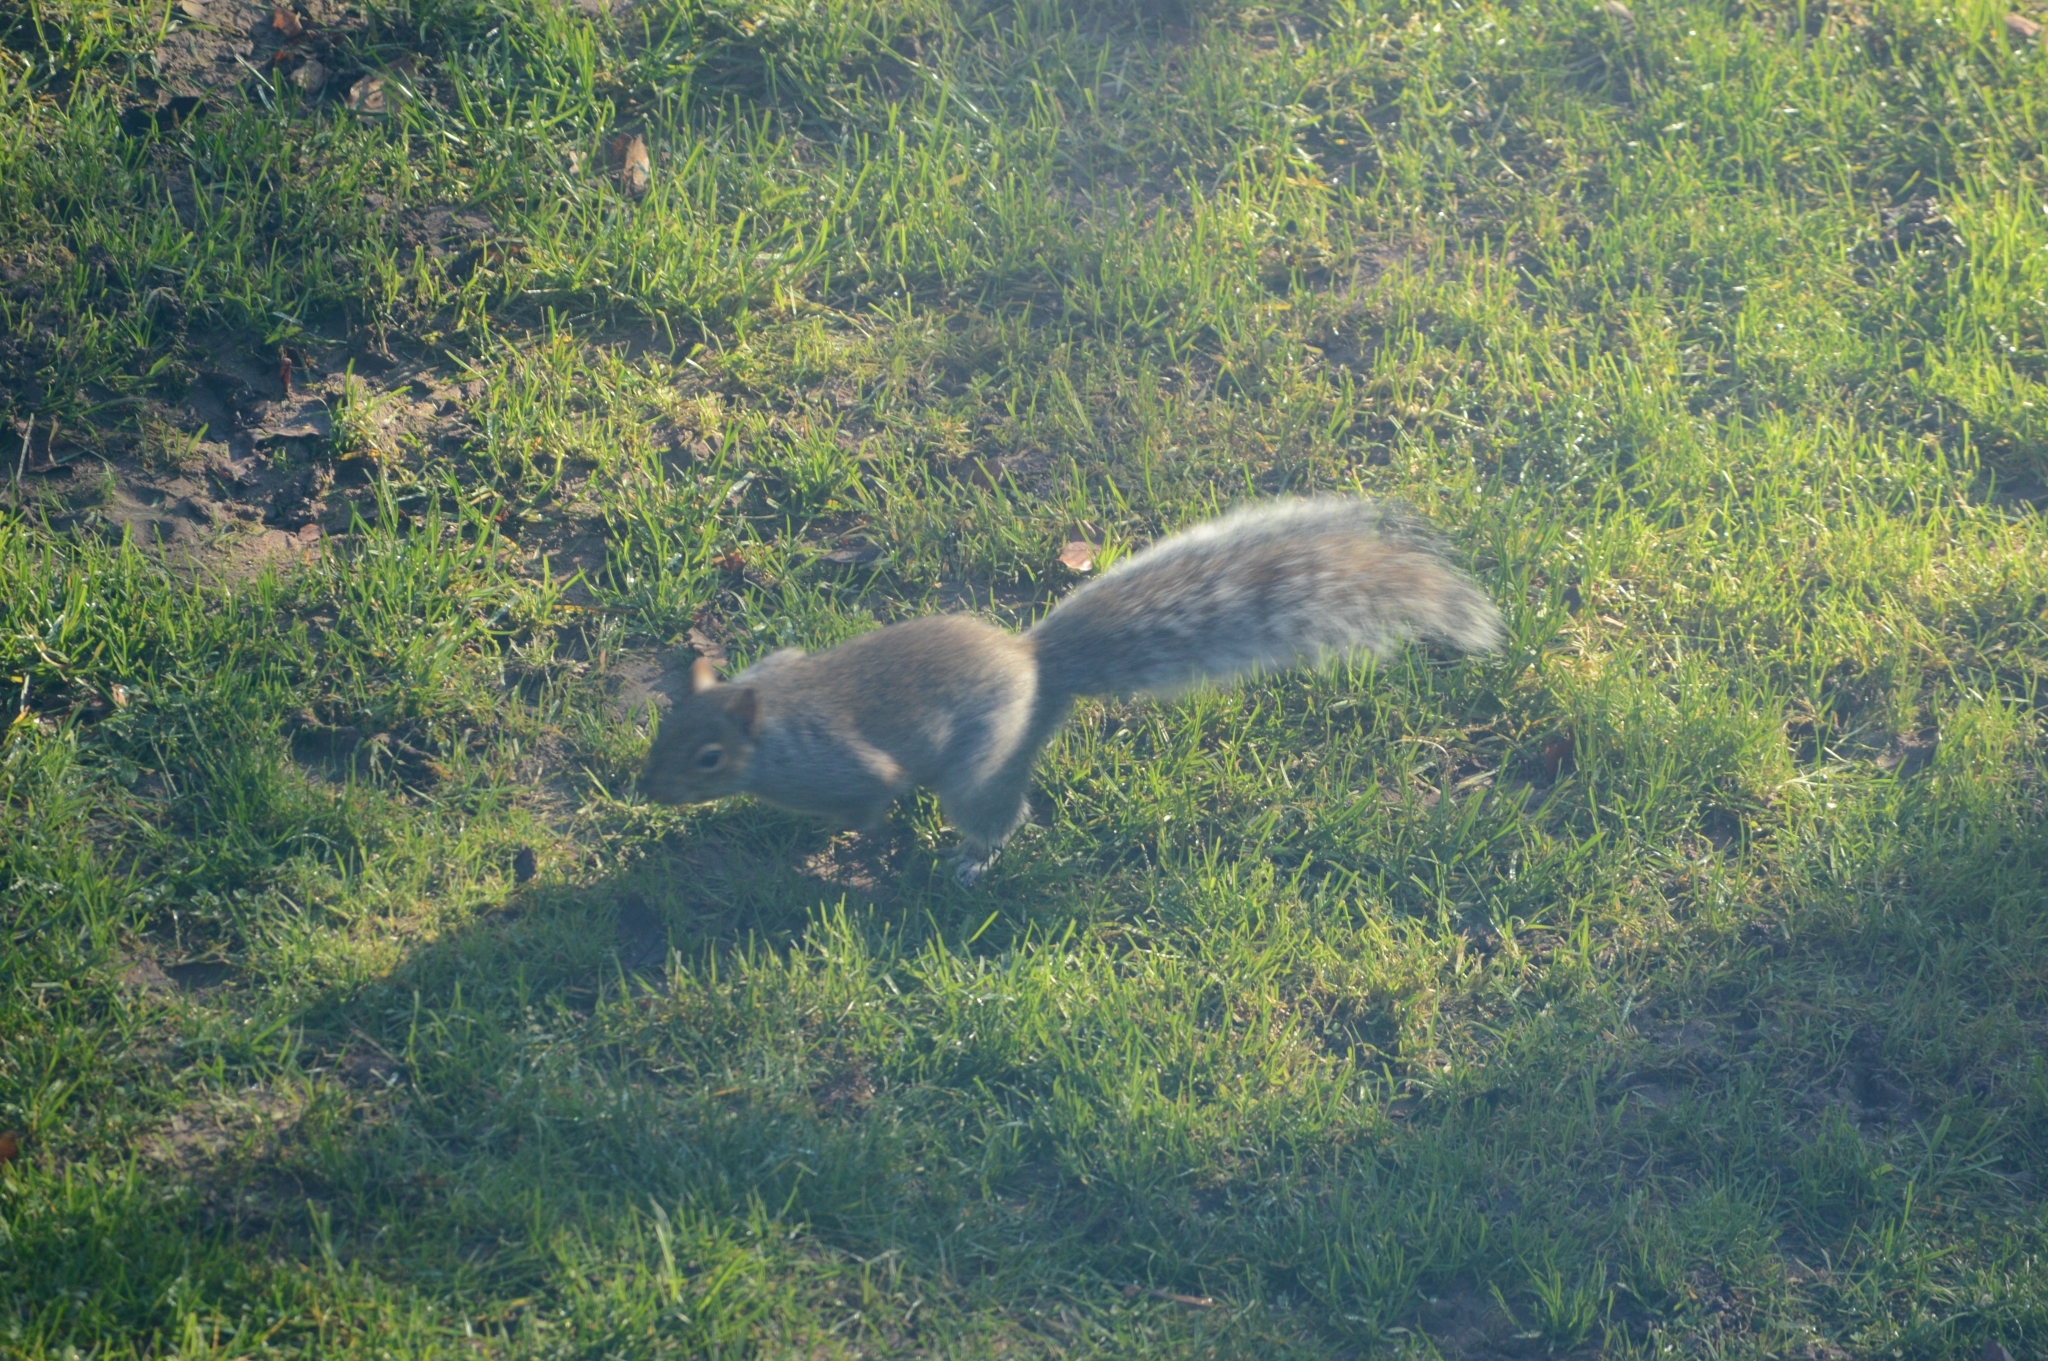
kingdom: Animalia
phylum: Chordata
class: Mammalia
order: Rodentia
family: Sciuridae
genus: Sciurus
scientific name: Sciurus carolinensis
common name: Eastern gray squirrel
